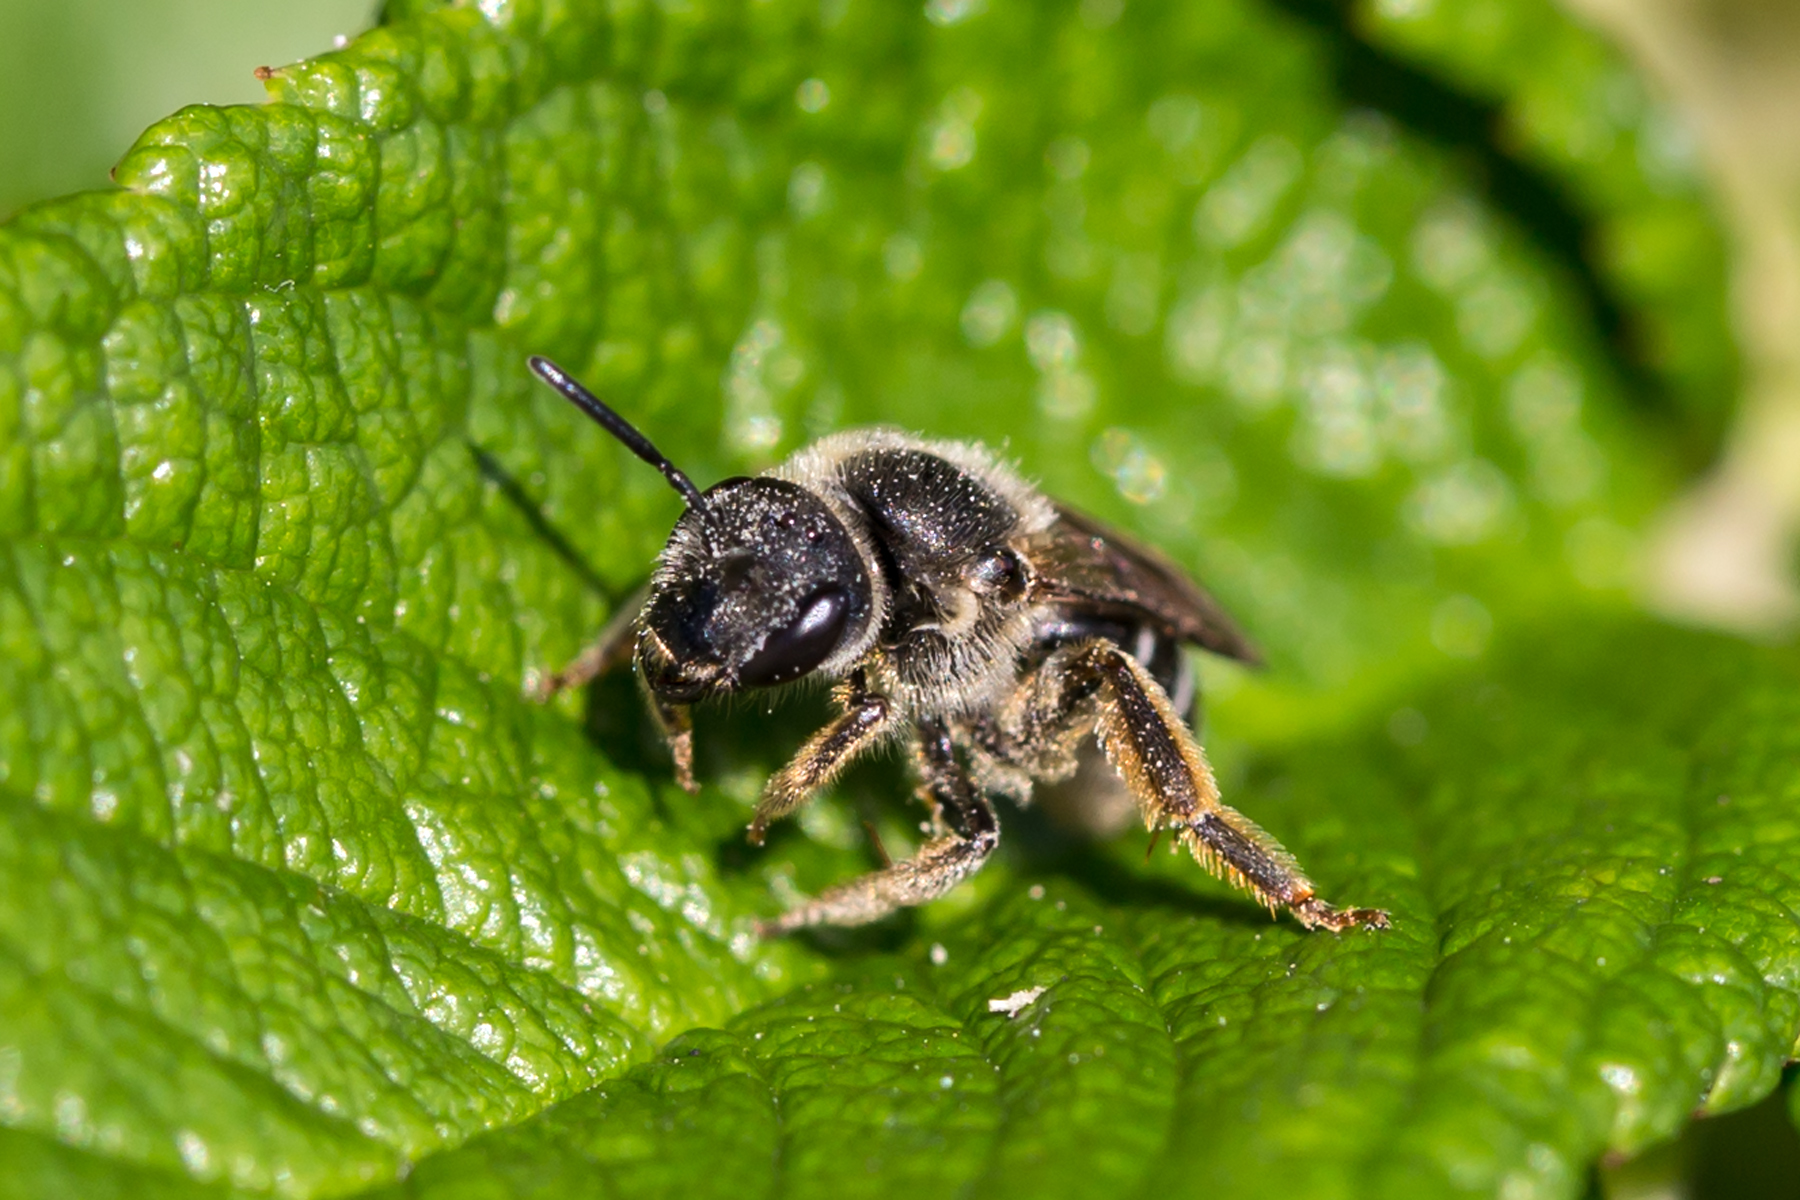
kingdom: Animalia
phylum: Arthropoda
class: Insecta
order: Hymenoptera
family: Halictidae
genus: Halictus
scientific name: Halictus rubicundus
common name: Orange-legged furrow bee
